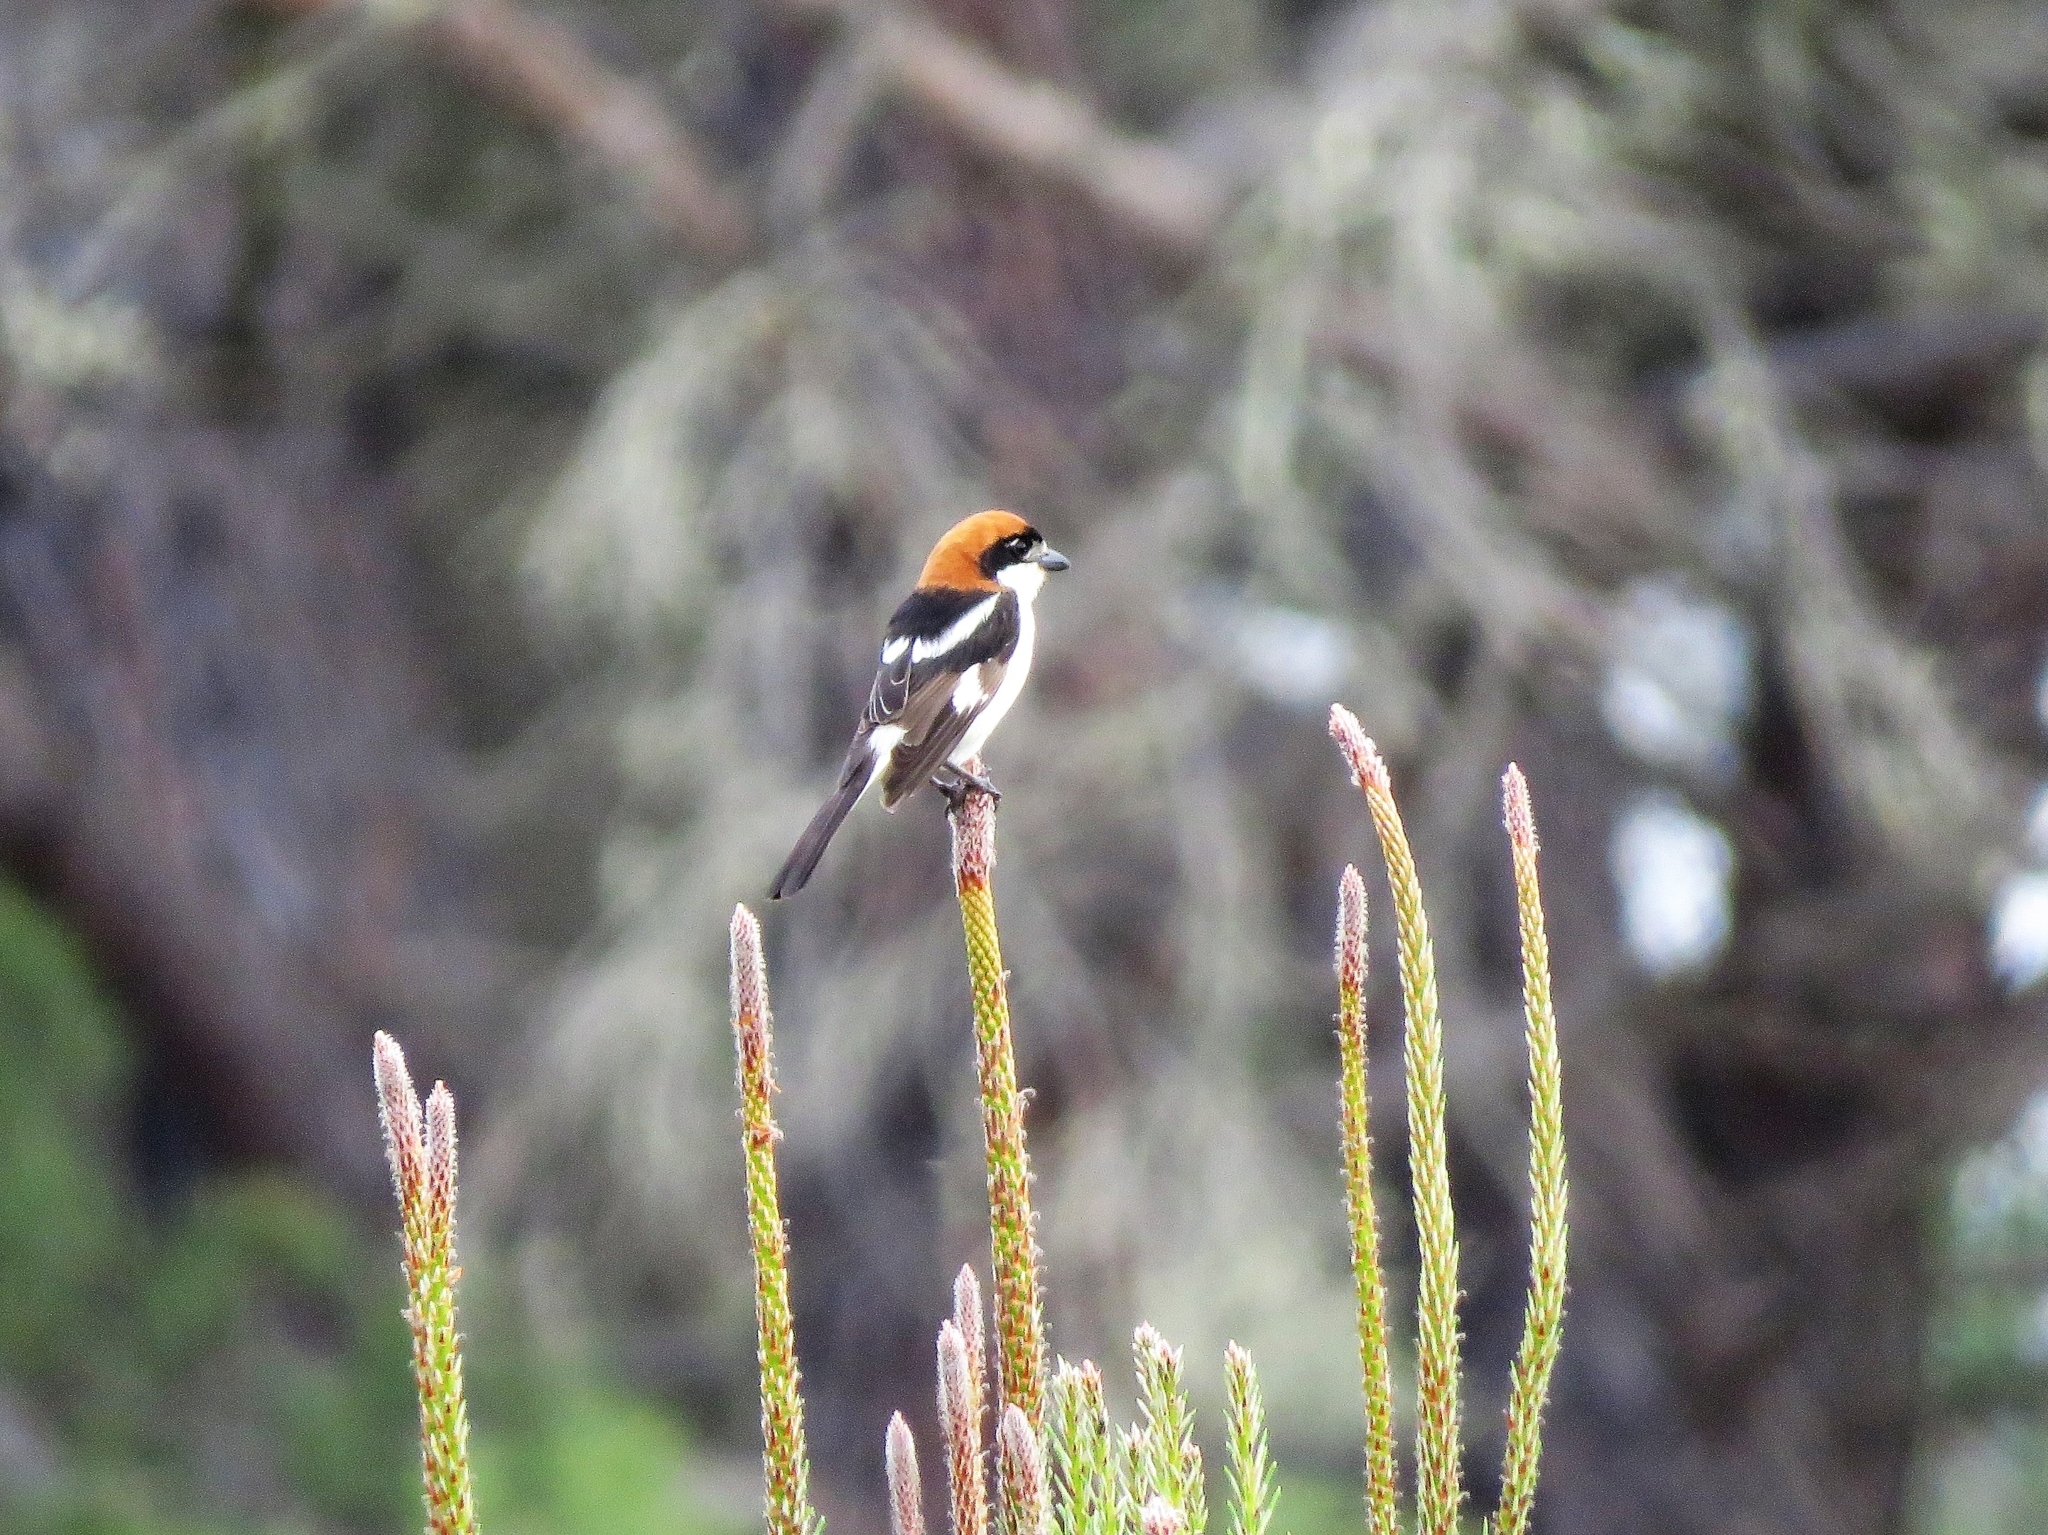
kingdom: Animalia
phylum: Chordata
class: Aves
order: Passeriformes
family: Laniidae
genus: Lanius
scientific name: Lanius senator
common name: Woodchat shrike
